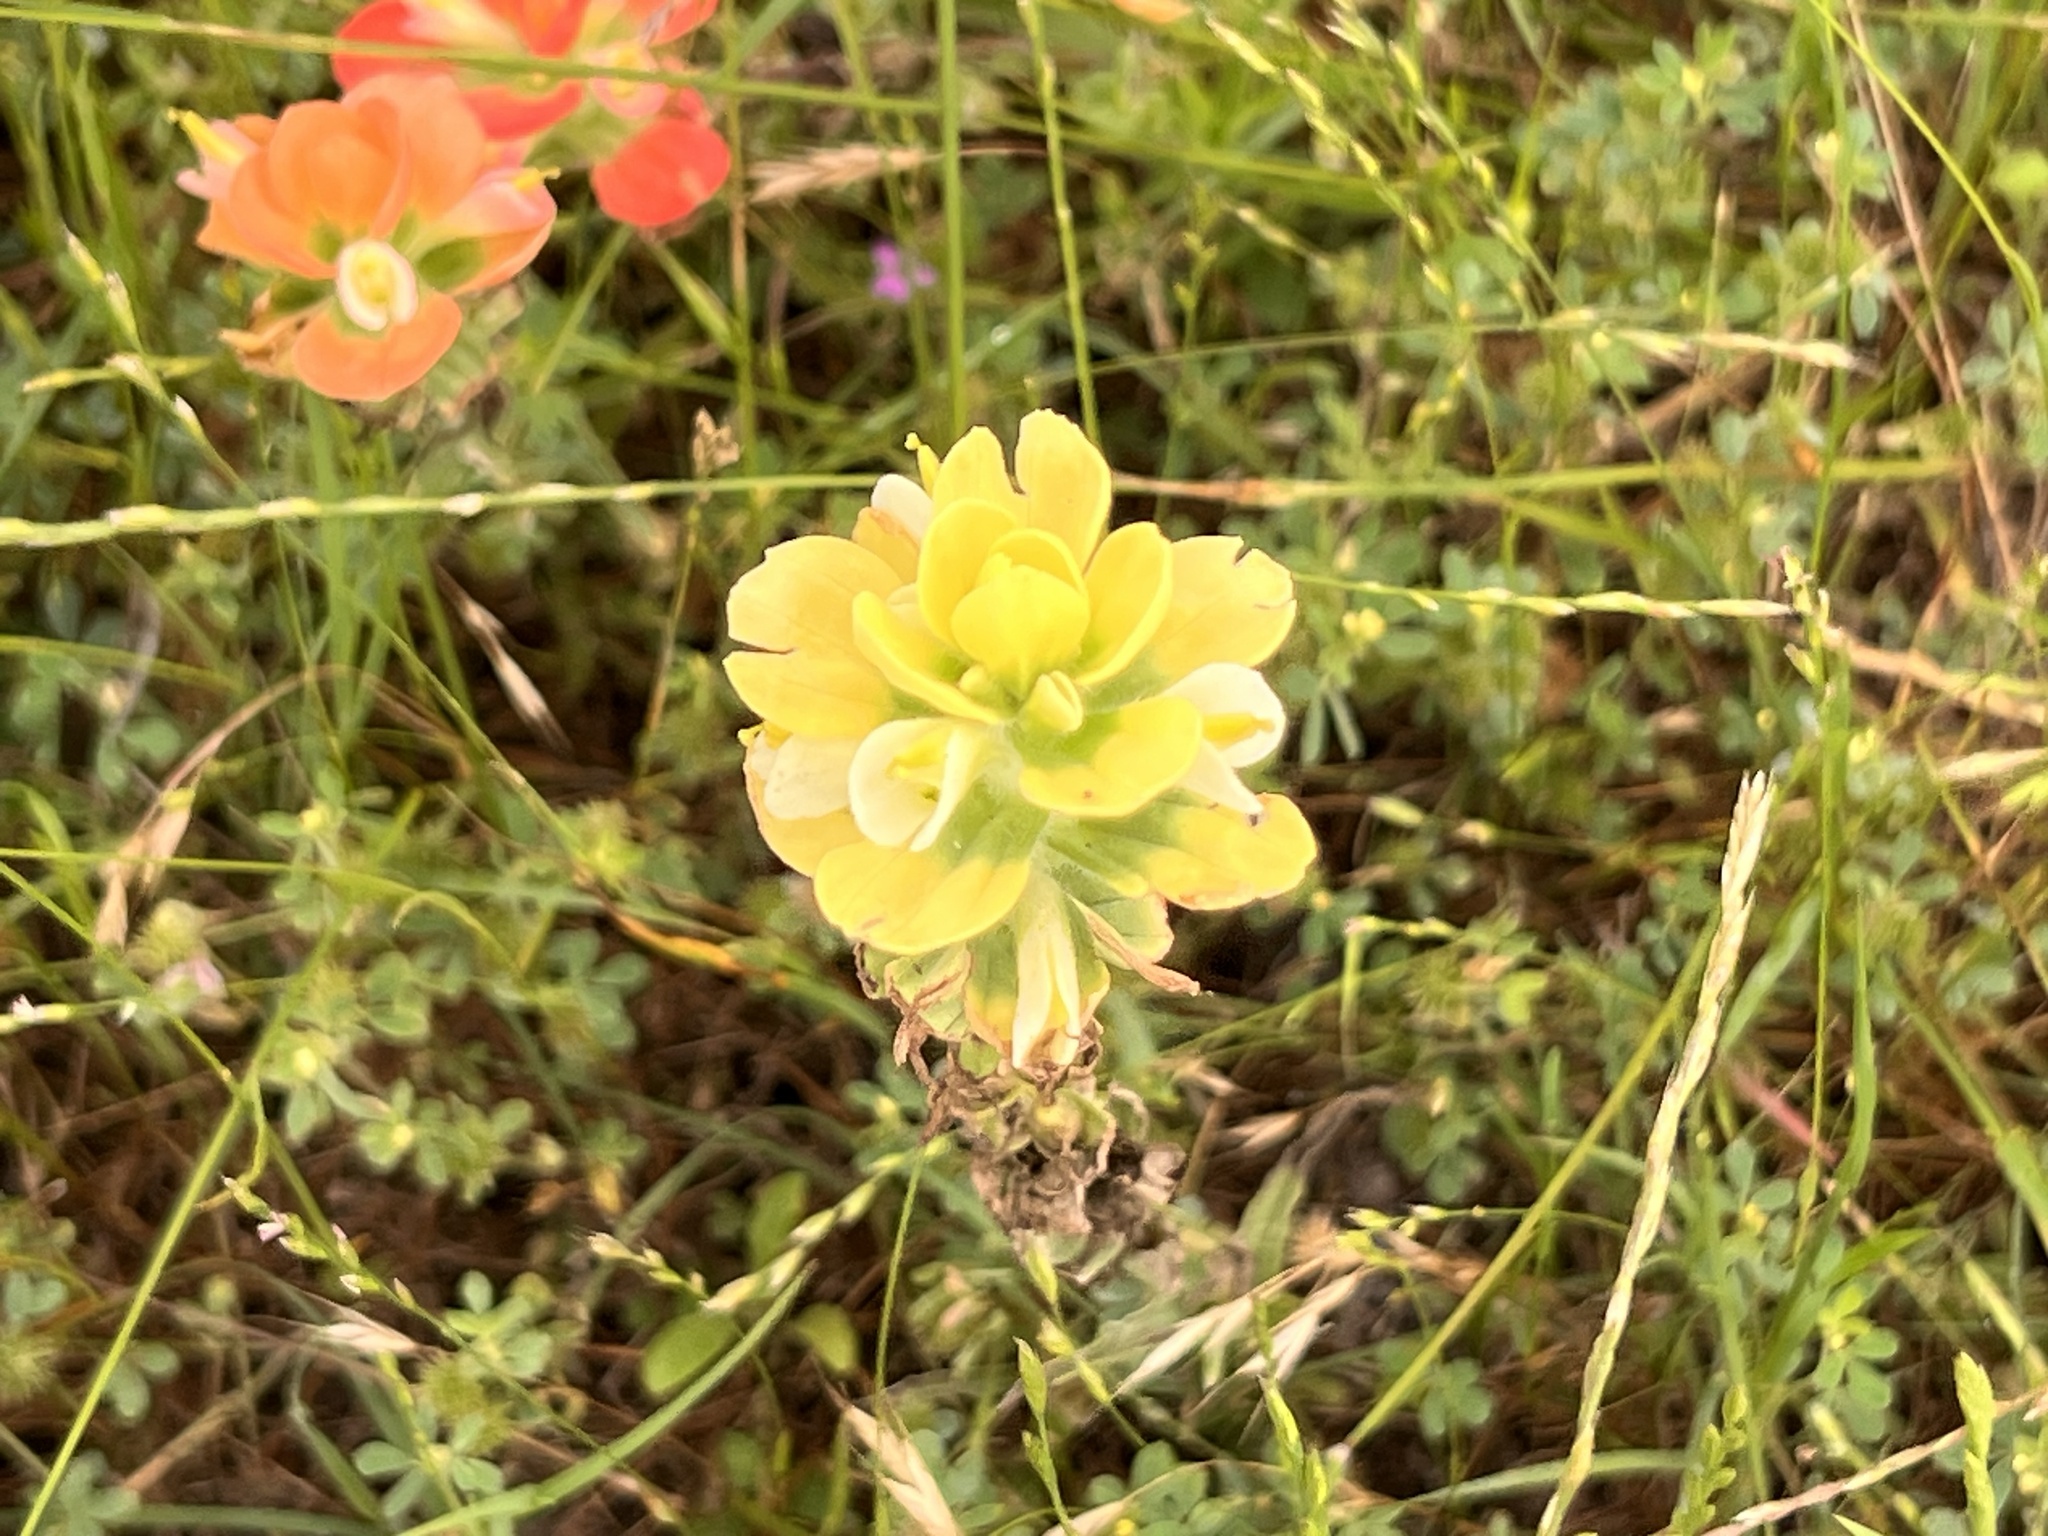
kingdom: Plantae
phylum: Tracheophyta
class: Magnoliopsida
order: Lamiales
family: Orobanchaceae
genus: Castilleja
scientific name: Castilleja indivisa
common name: Texas paintbrush
